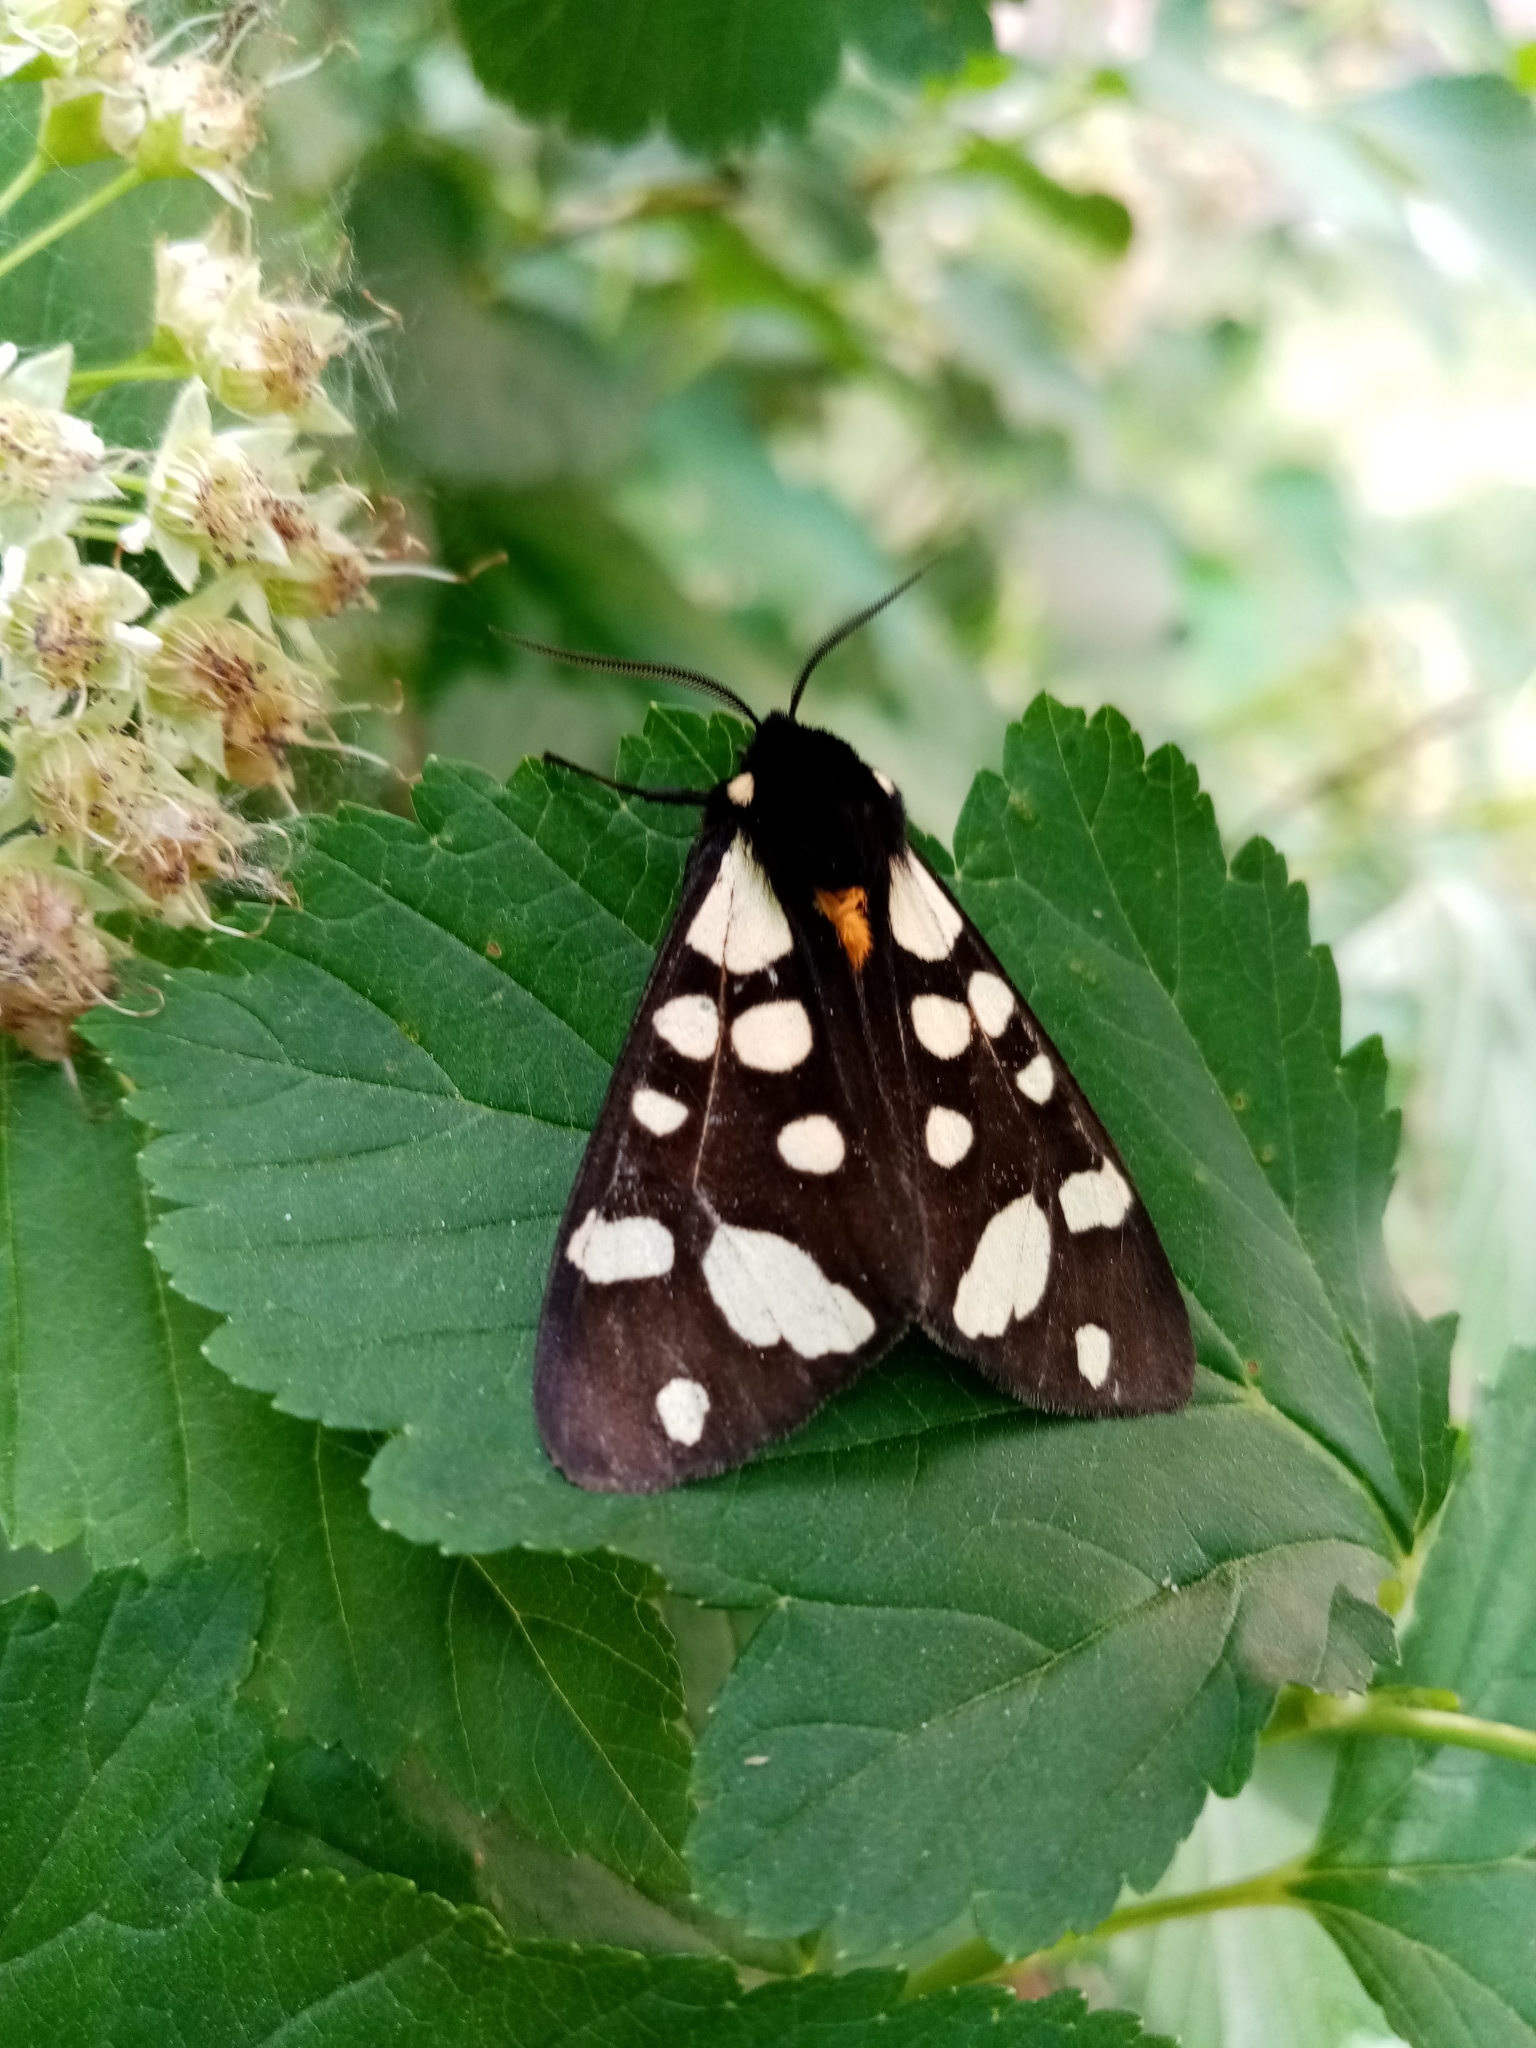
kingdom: Animalia
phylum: Arthropoda
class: Insecta
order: Lepidoptera
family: Erebidae
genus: Epicallia
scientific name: Epicallia villica
